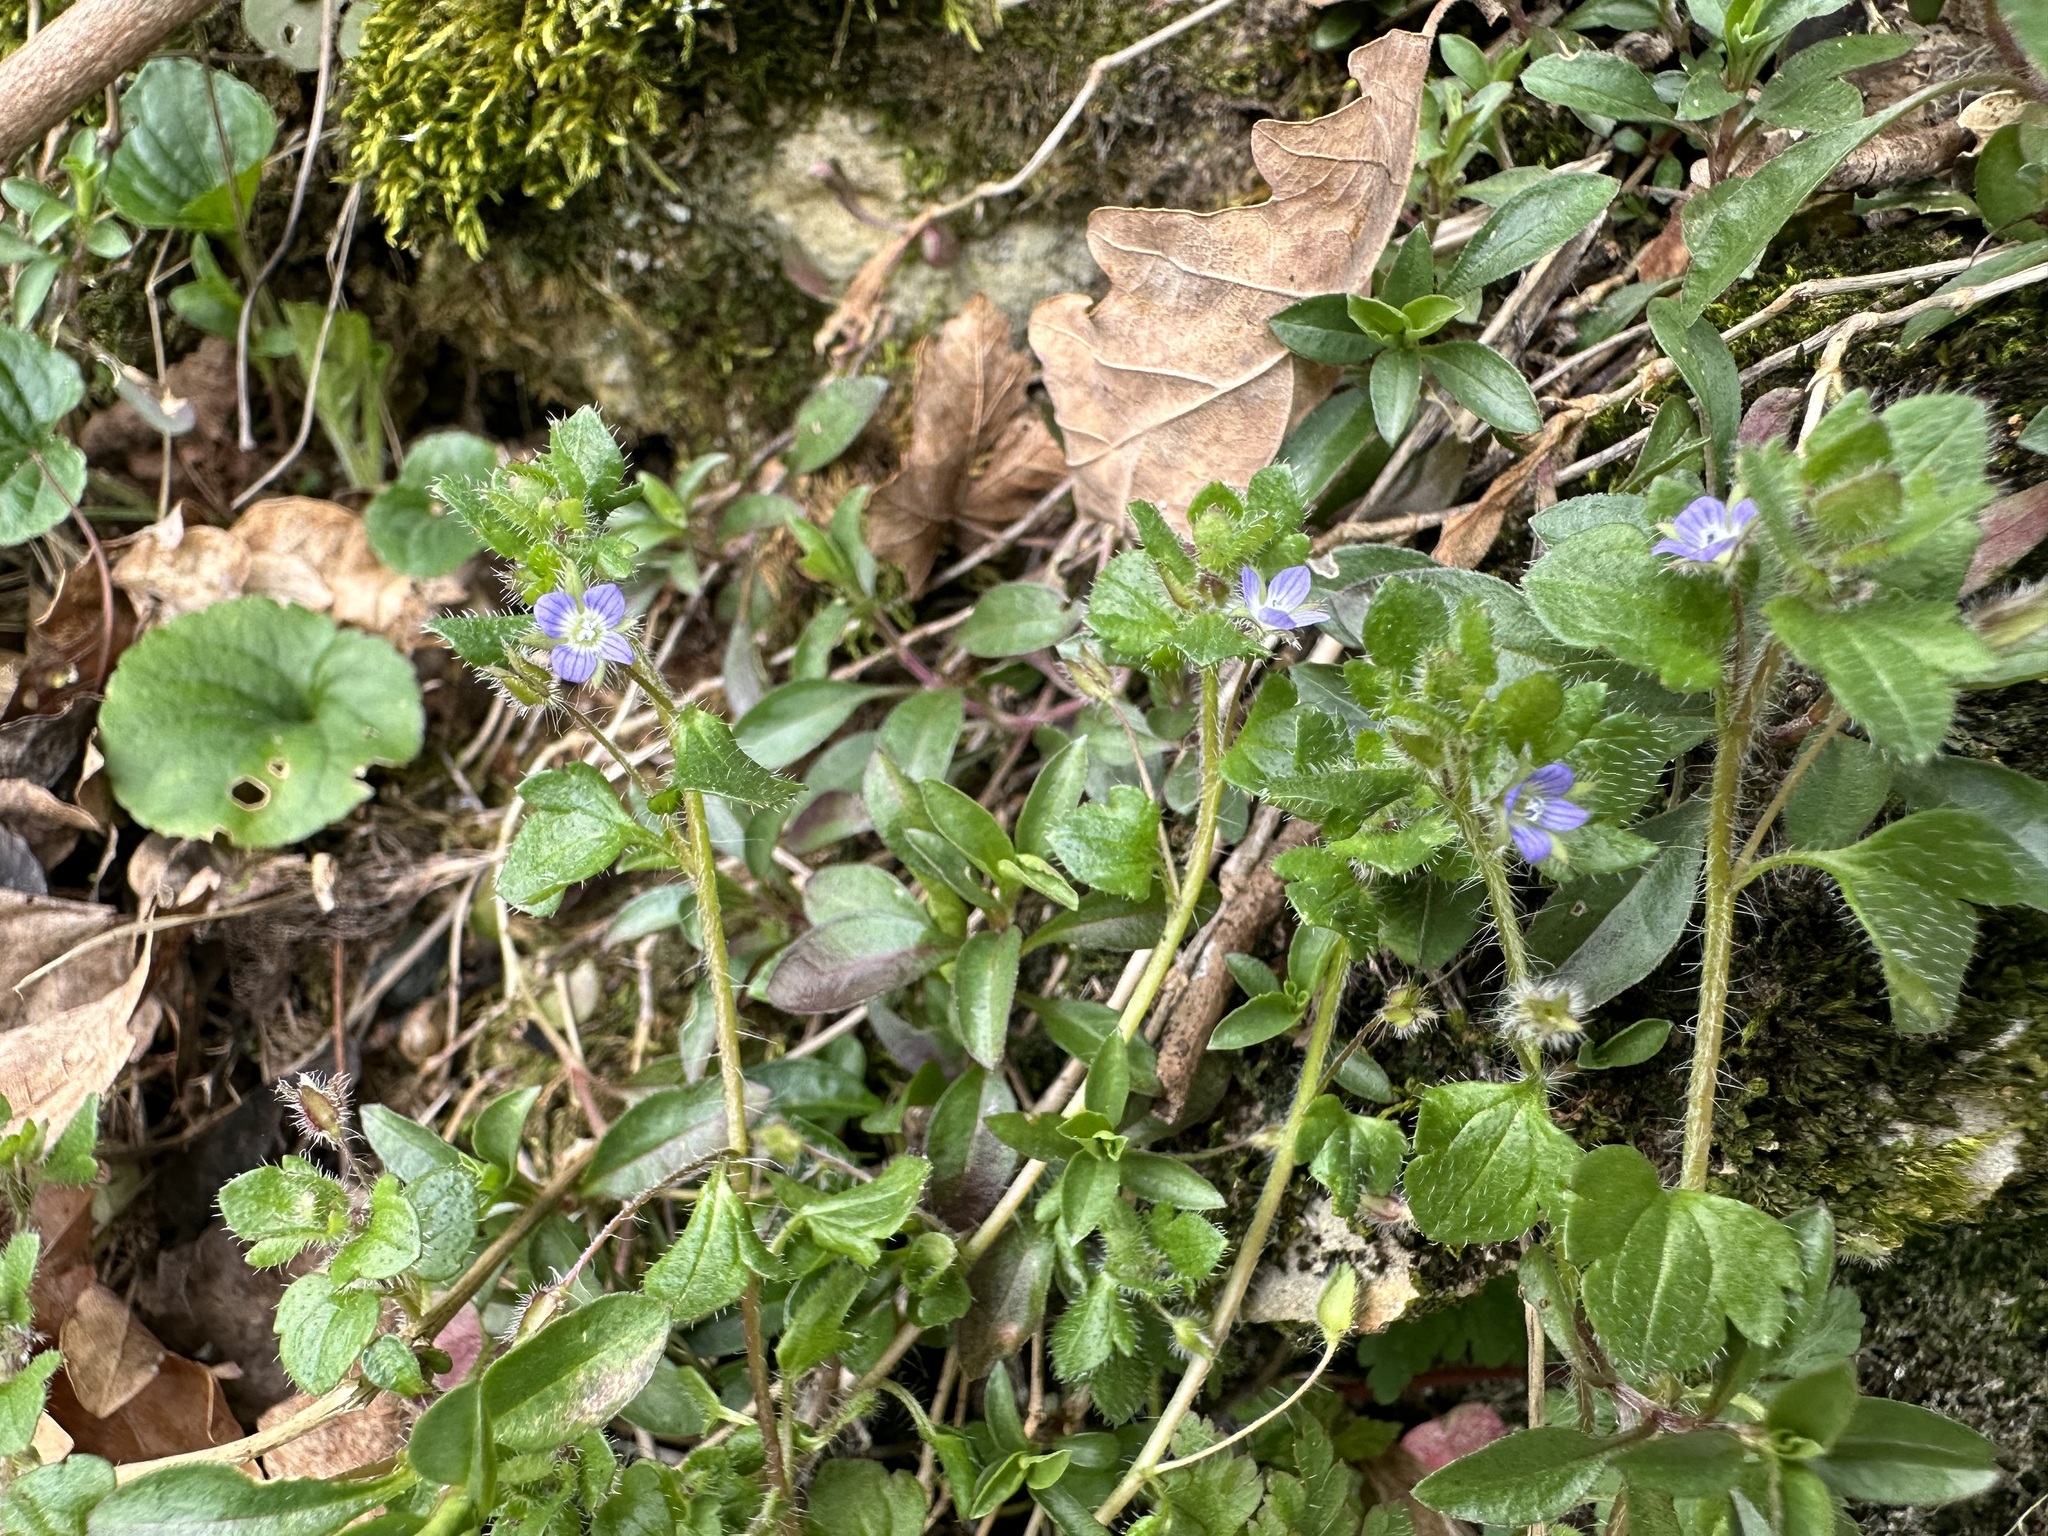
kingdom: Plantae
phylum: Tracheophyta
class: Magnoliopsida
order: Lamiales
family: Plantaginaceae
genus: Veronica
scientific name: Veronica hederifolia
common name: Ivy-leaved speedwell
